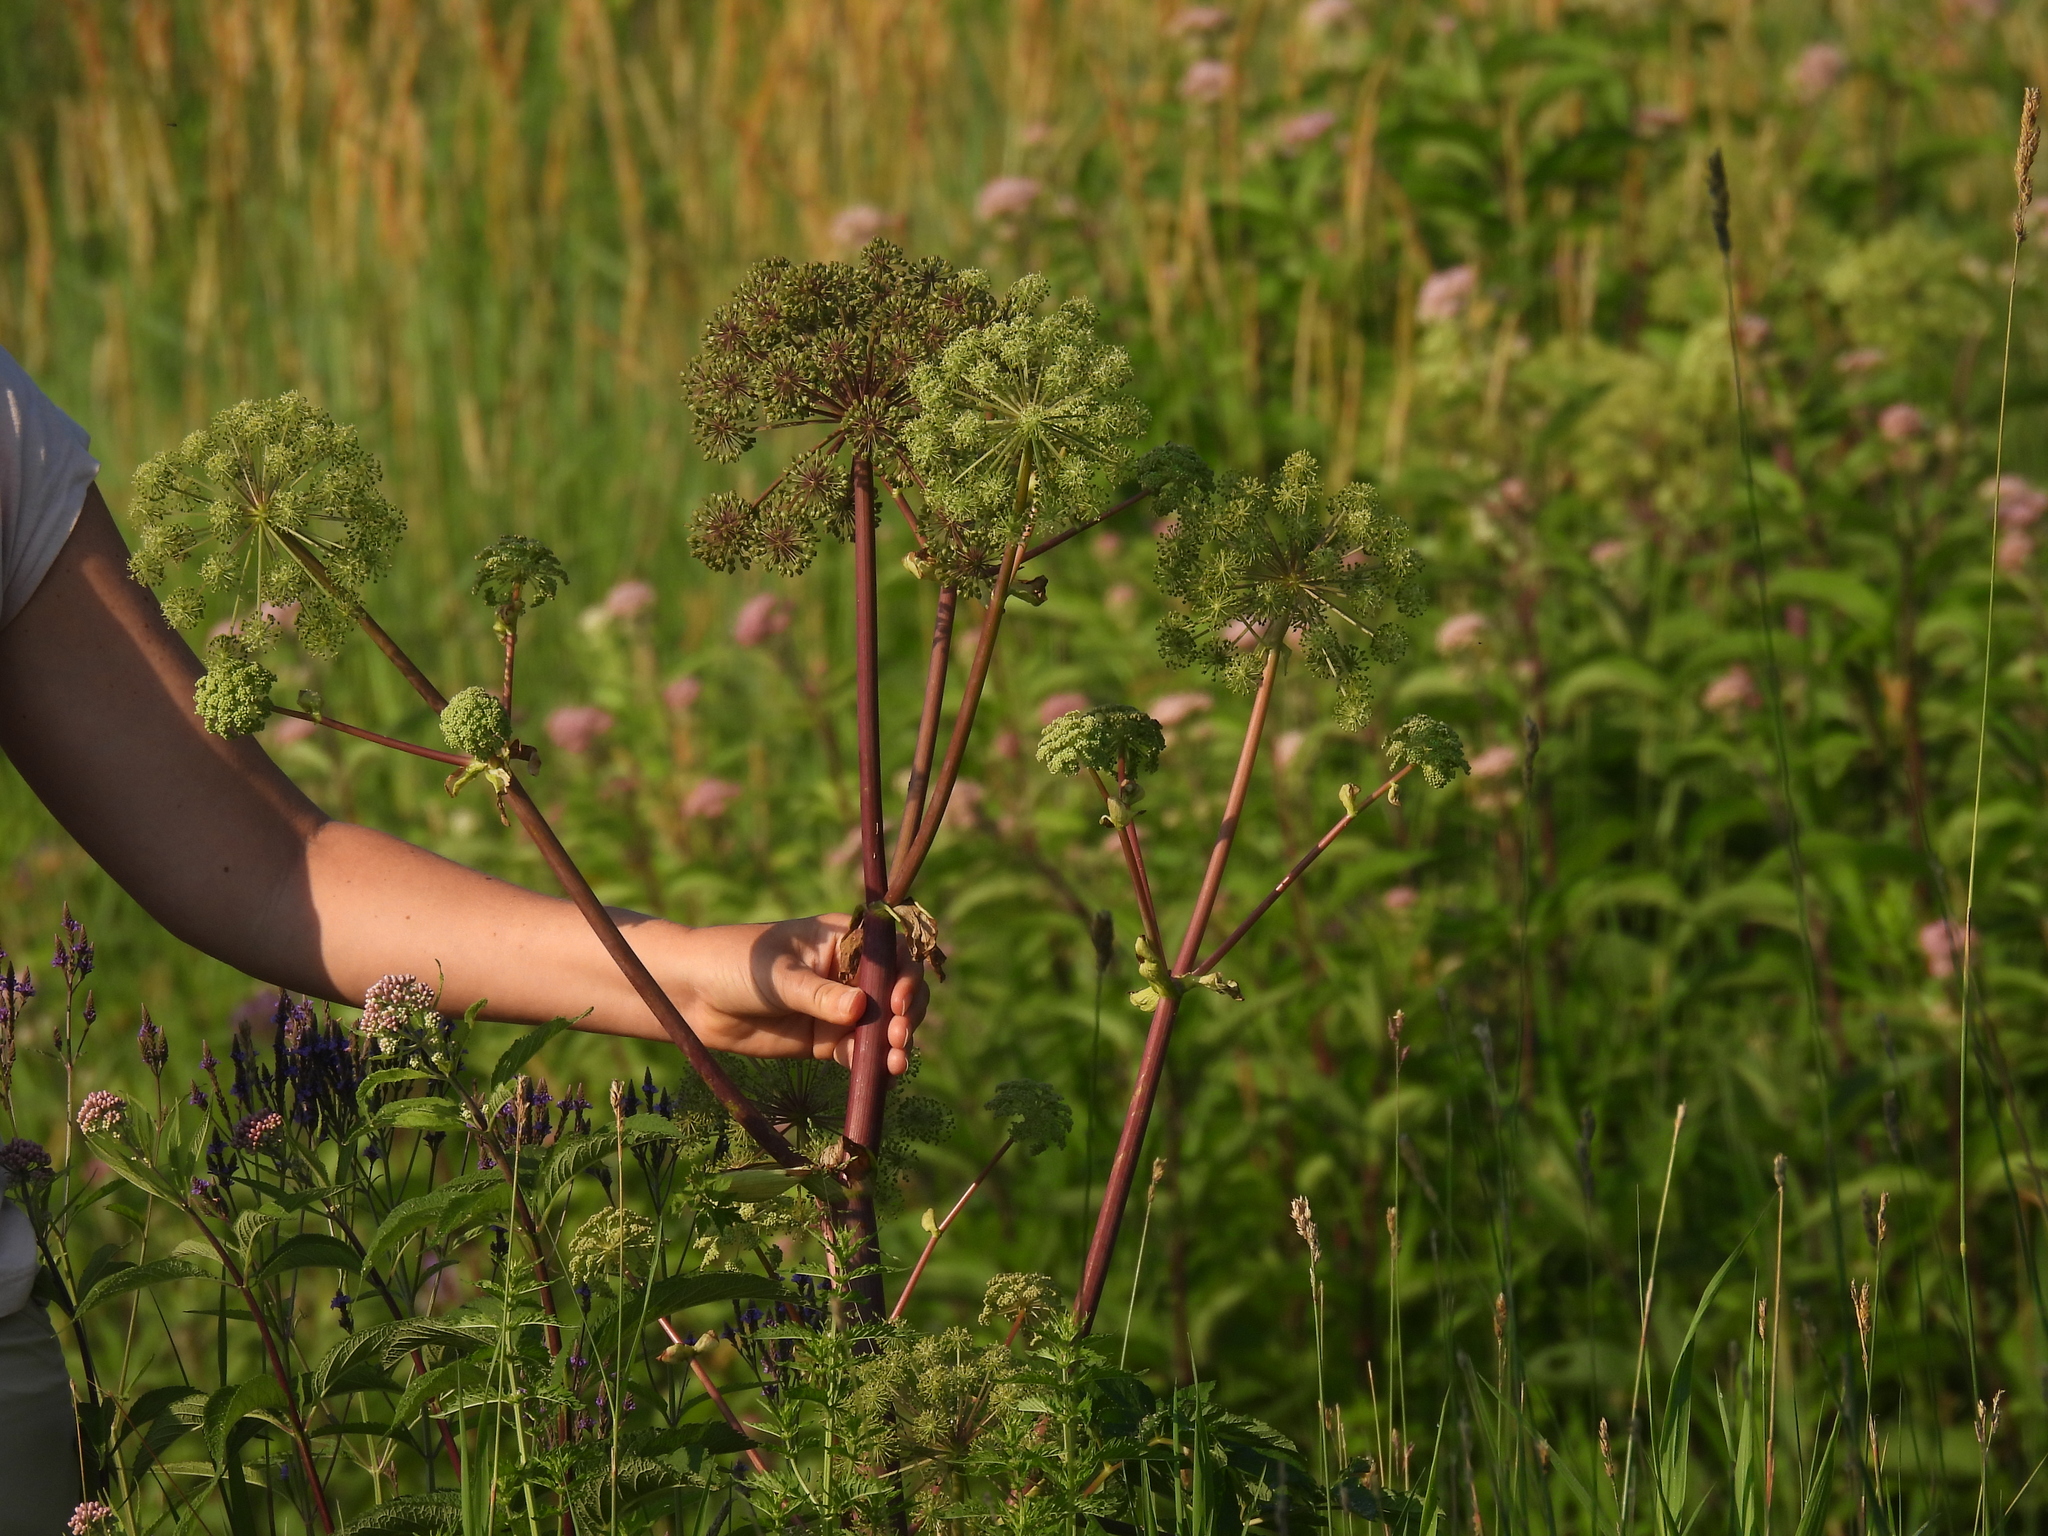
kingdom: Plantae
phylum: Tracheophyta
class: Magnoliopsida
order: Apiales
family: Apiaceae
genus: Angelica
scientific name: Angelica atropurpurea
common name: Great angelica
